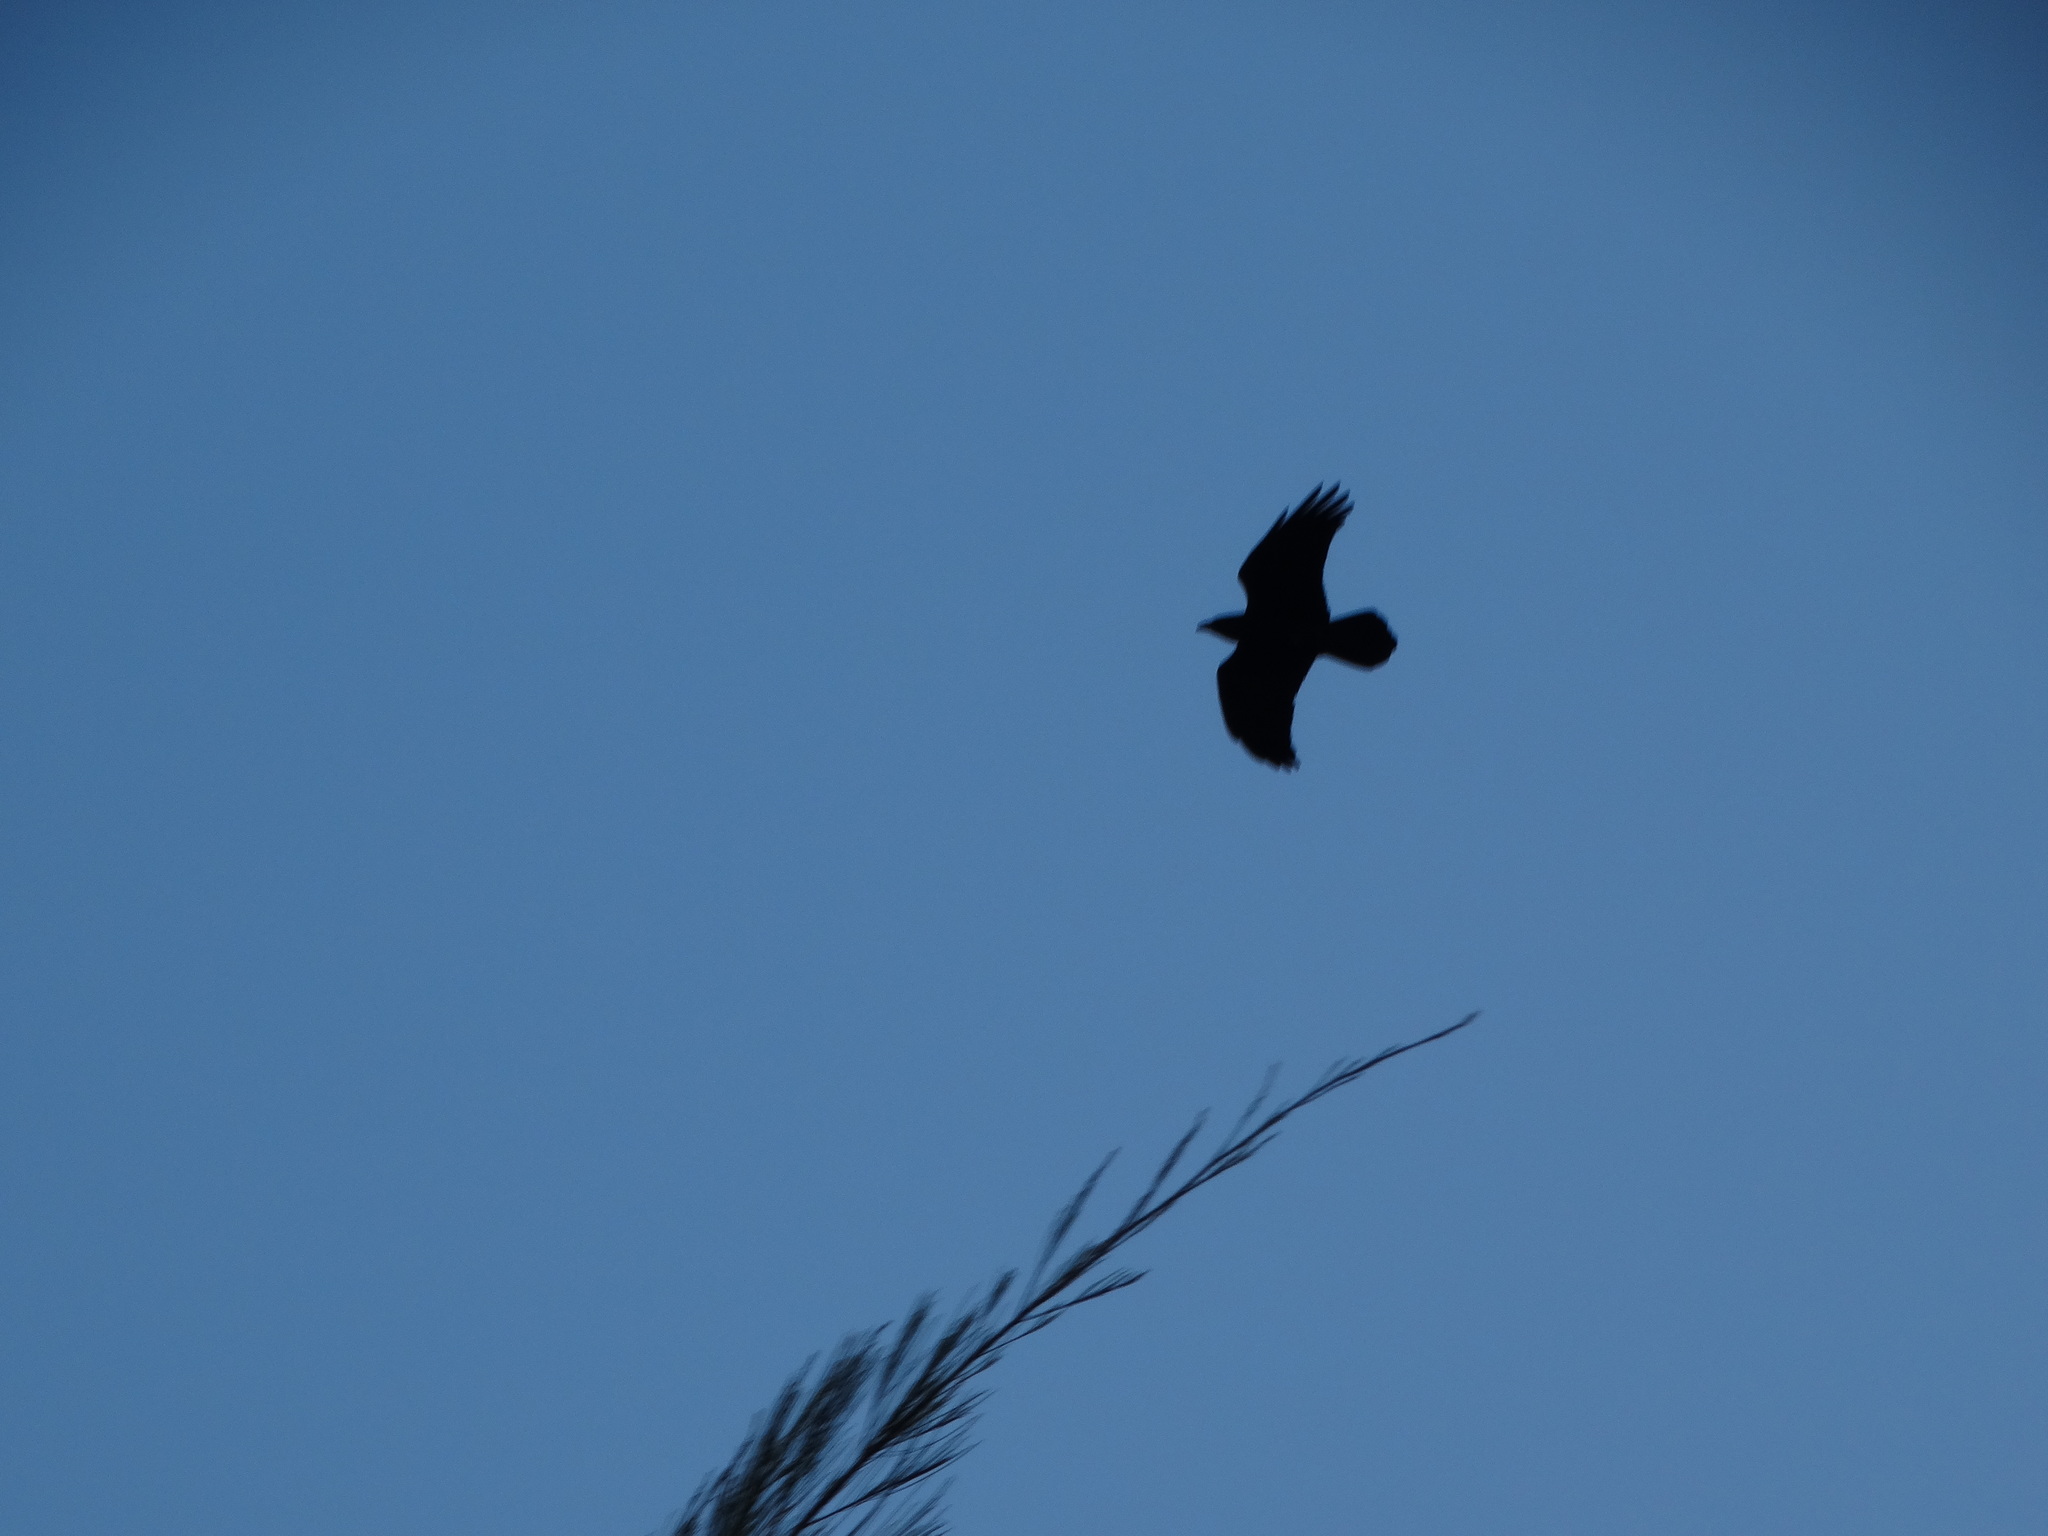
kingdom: Animalia
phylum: Chordata
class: Aves
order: Passeriformes
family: Corvidae
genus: Corvus
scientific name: Corvus corax
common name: Common raven
